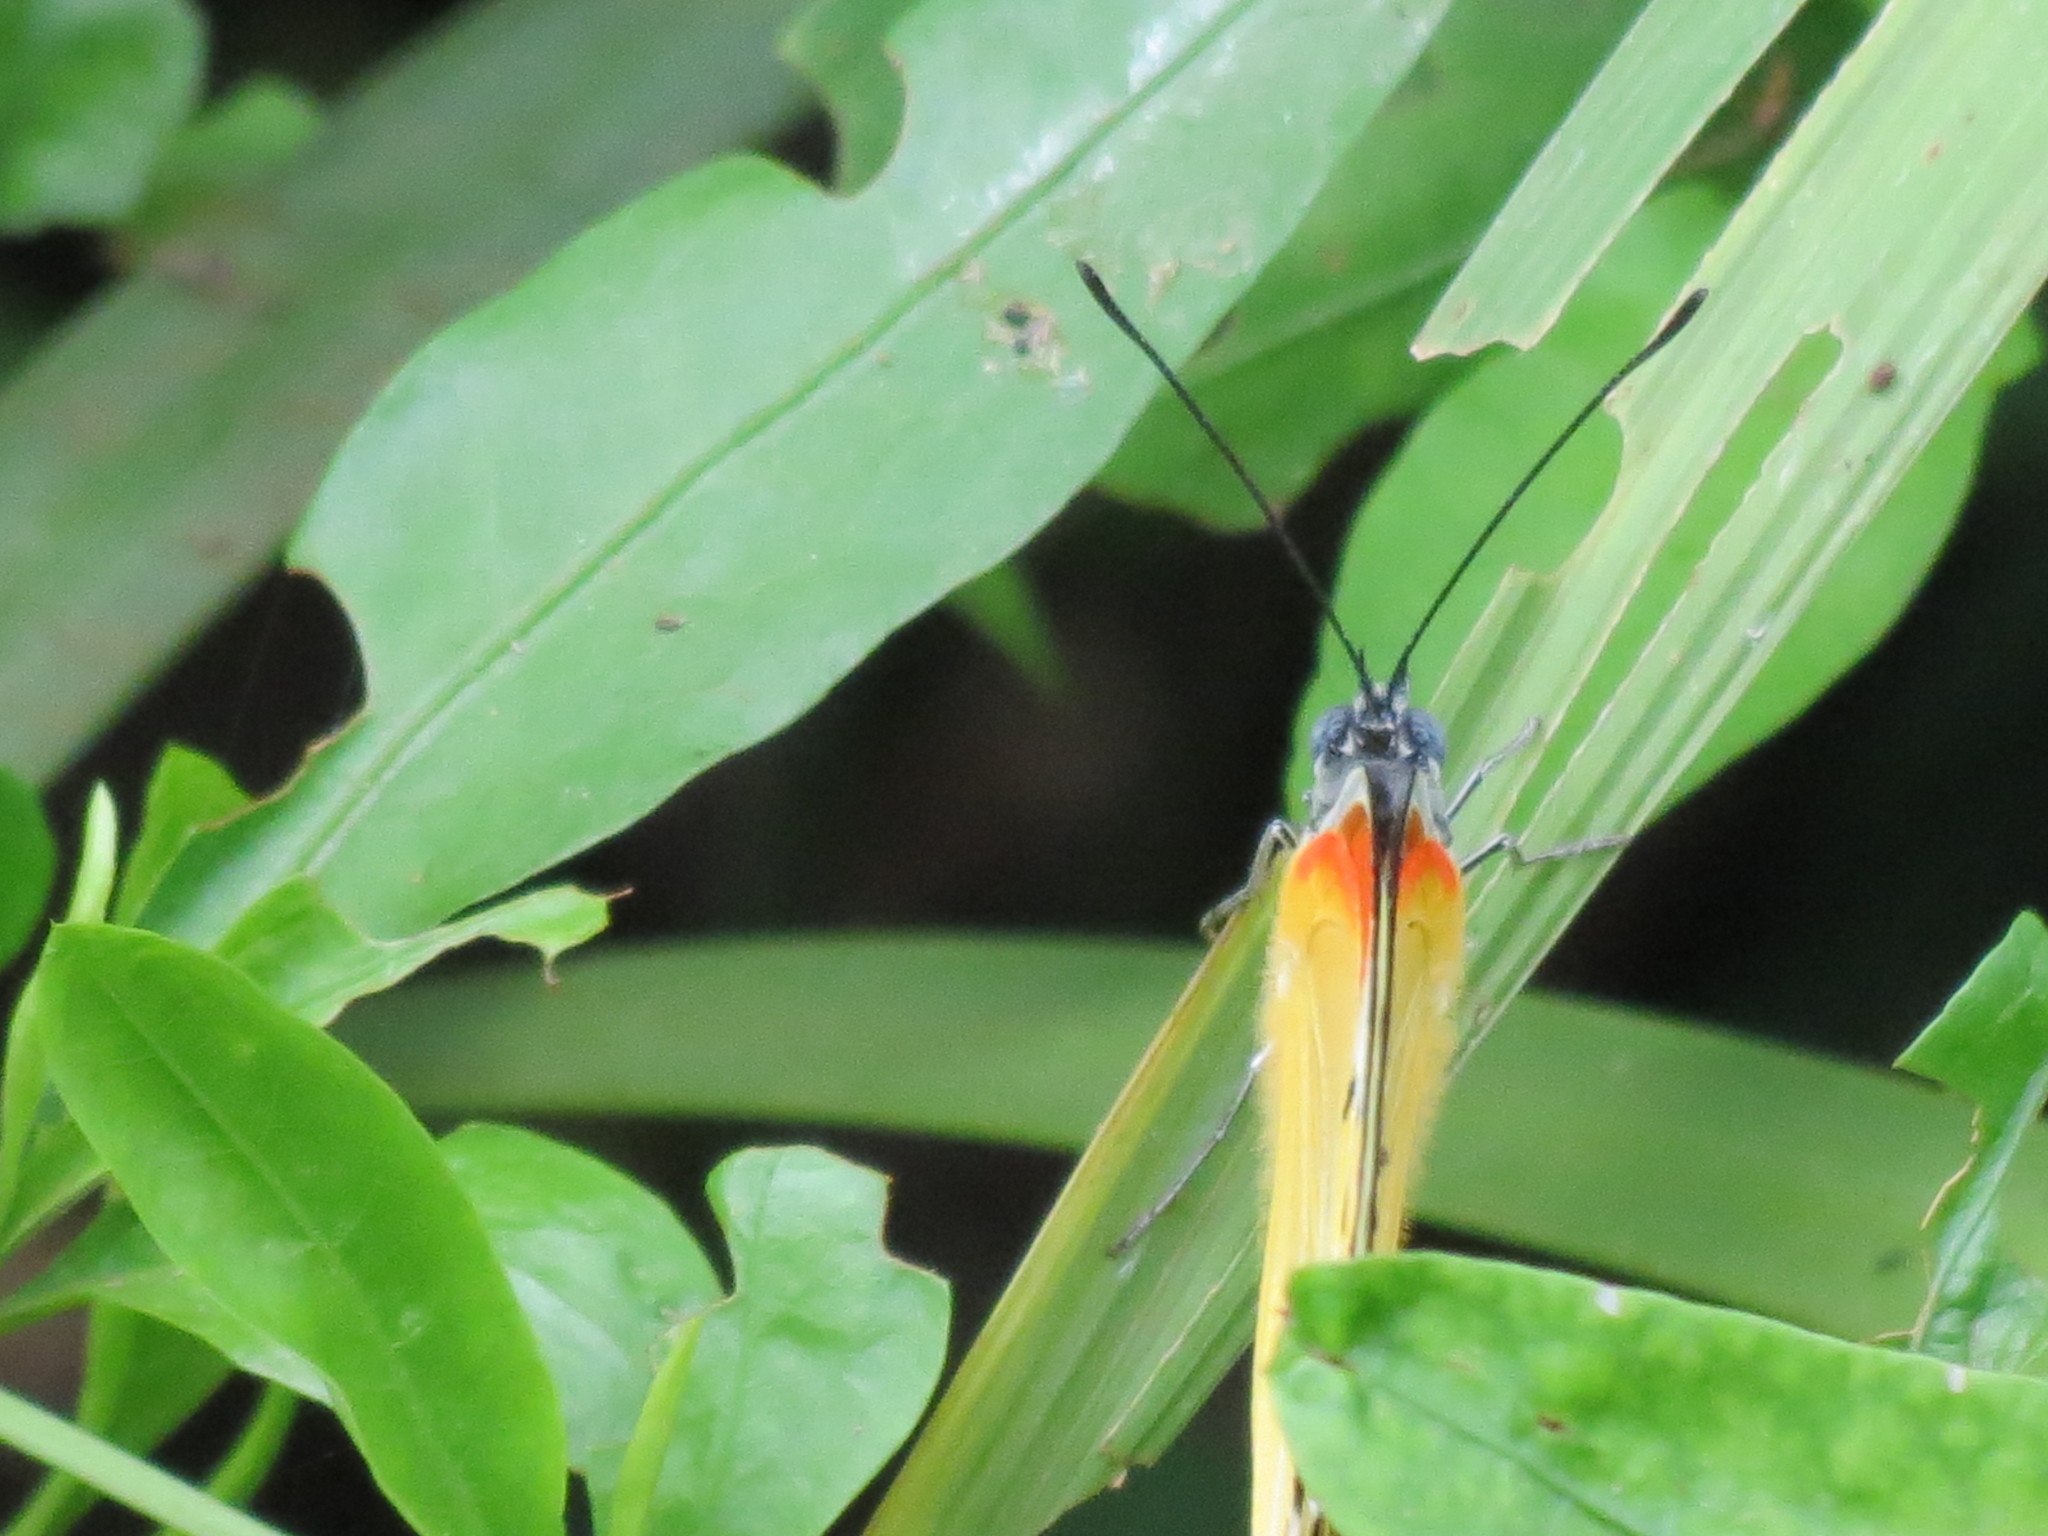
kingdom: Animalia
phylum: Arthropoda
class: Insecta
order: Lepidoptera
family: Pieridae
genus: Belenois
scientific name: Belenois thysa
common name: False dotted border
